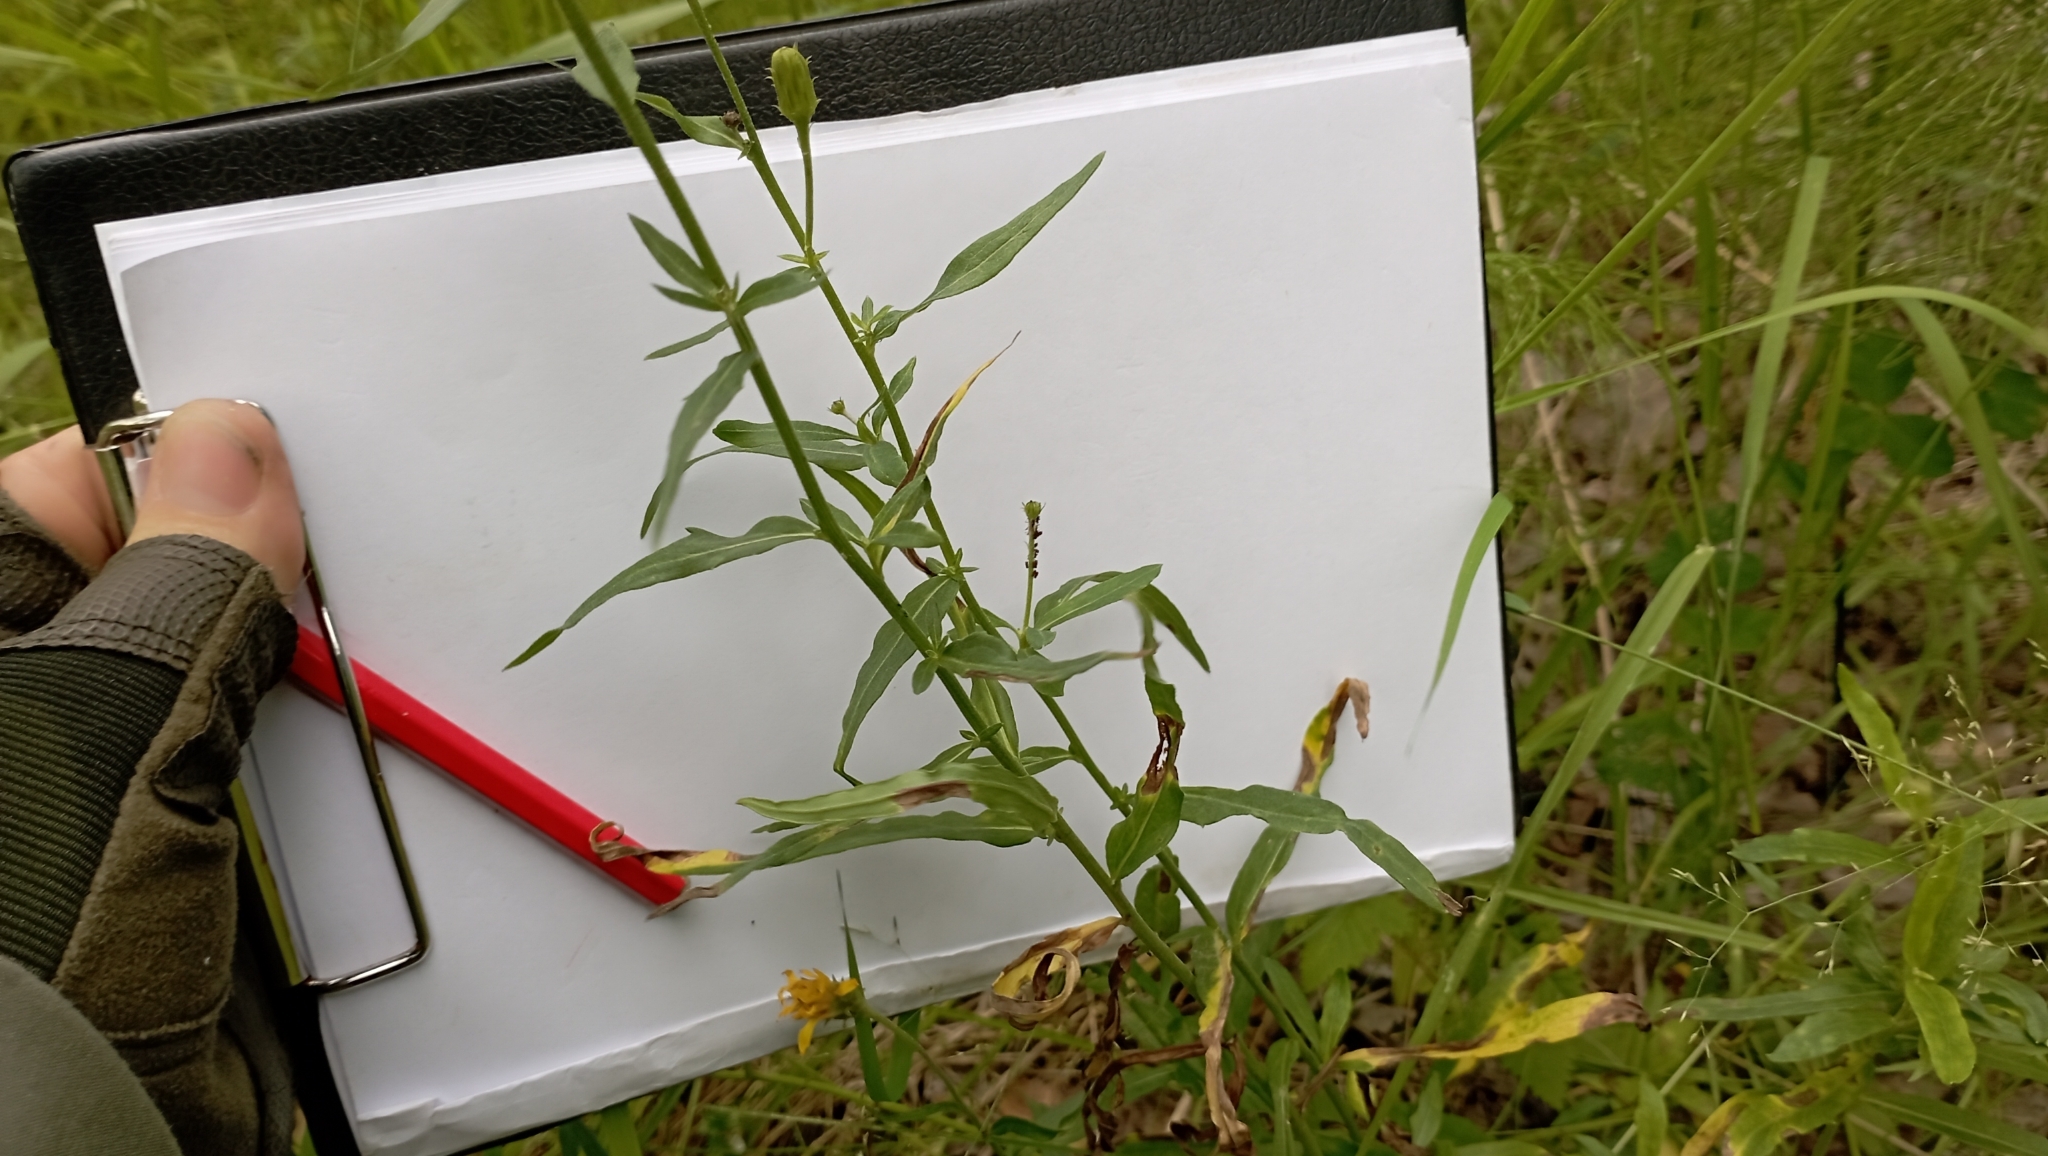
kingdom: Plantae
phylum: Tracheophyta
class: Magnoliopsida
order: Asterales
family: Asteraceae
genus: Hieracium
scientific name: Hieracium umbellatum
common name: Northern hawkweed
